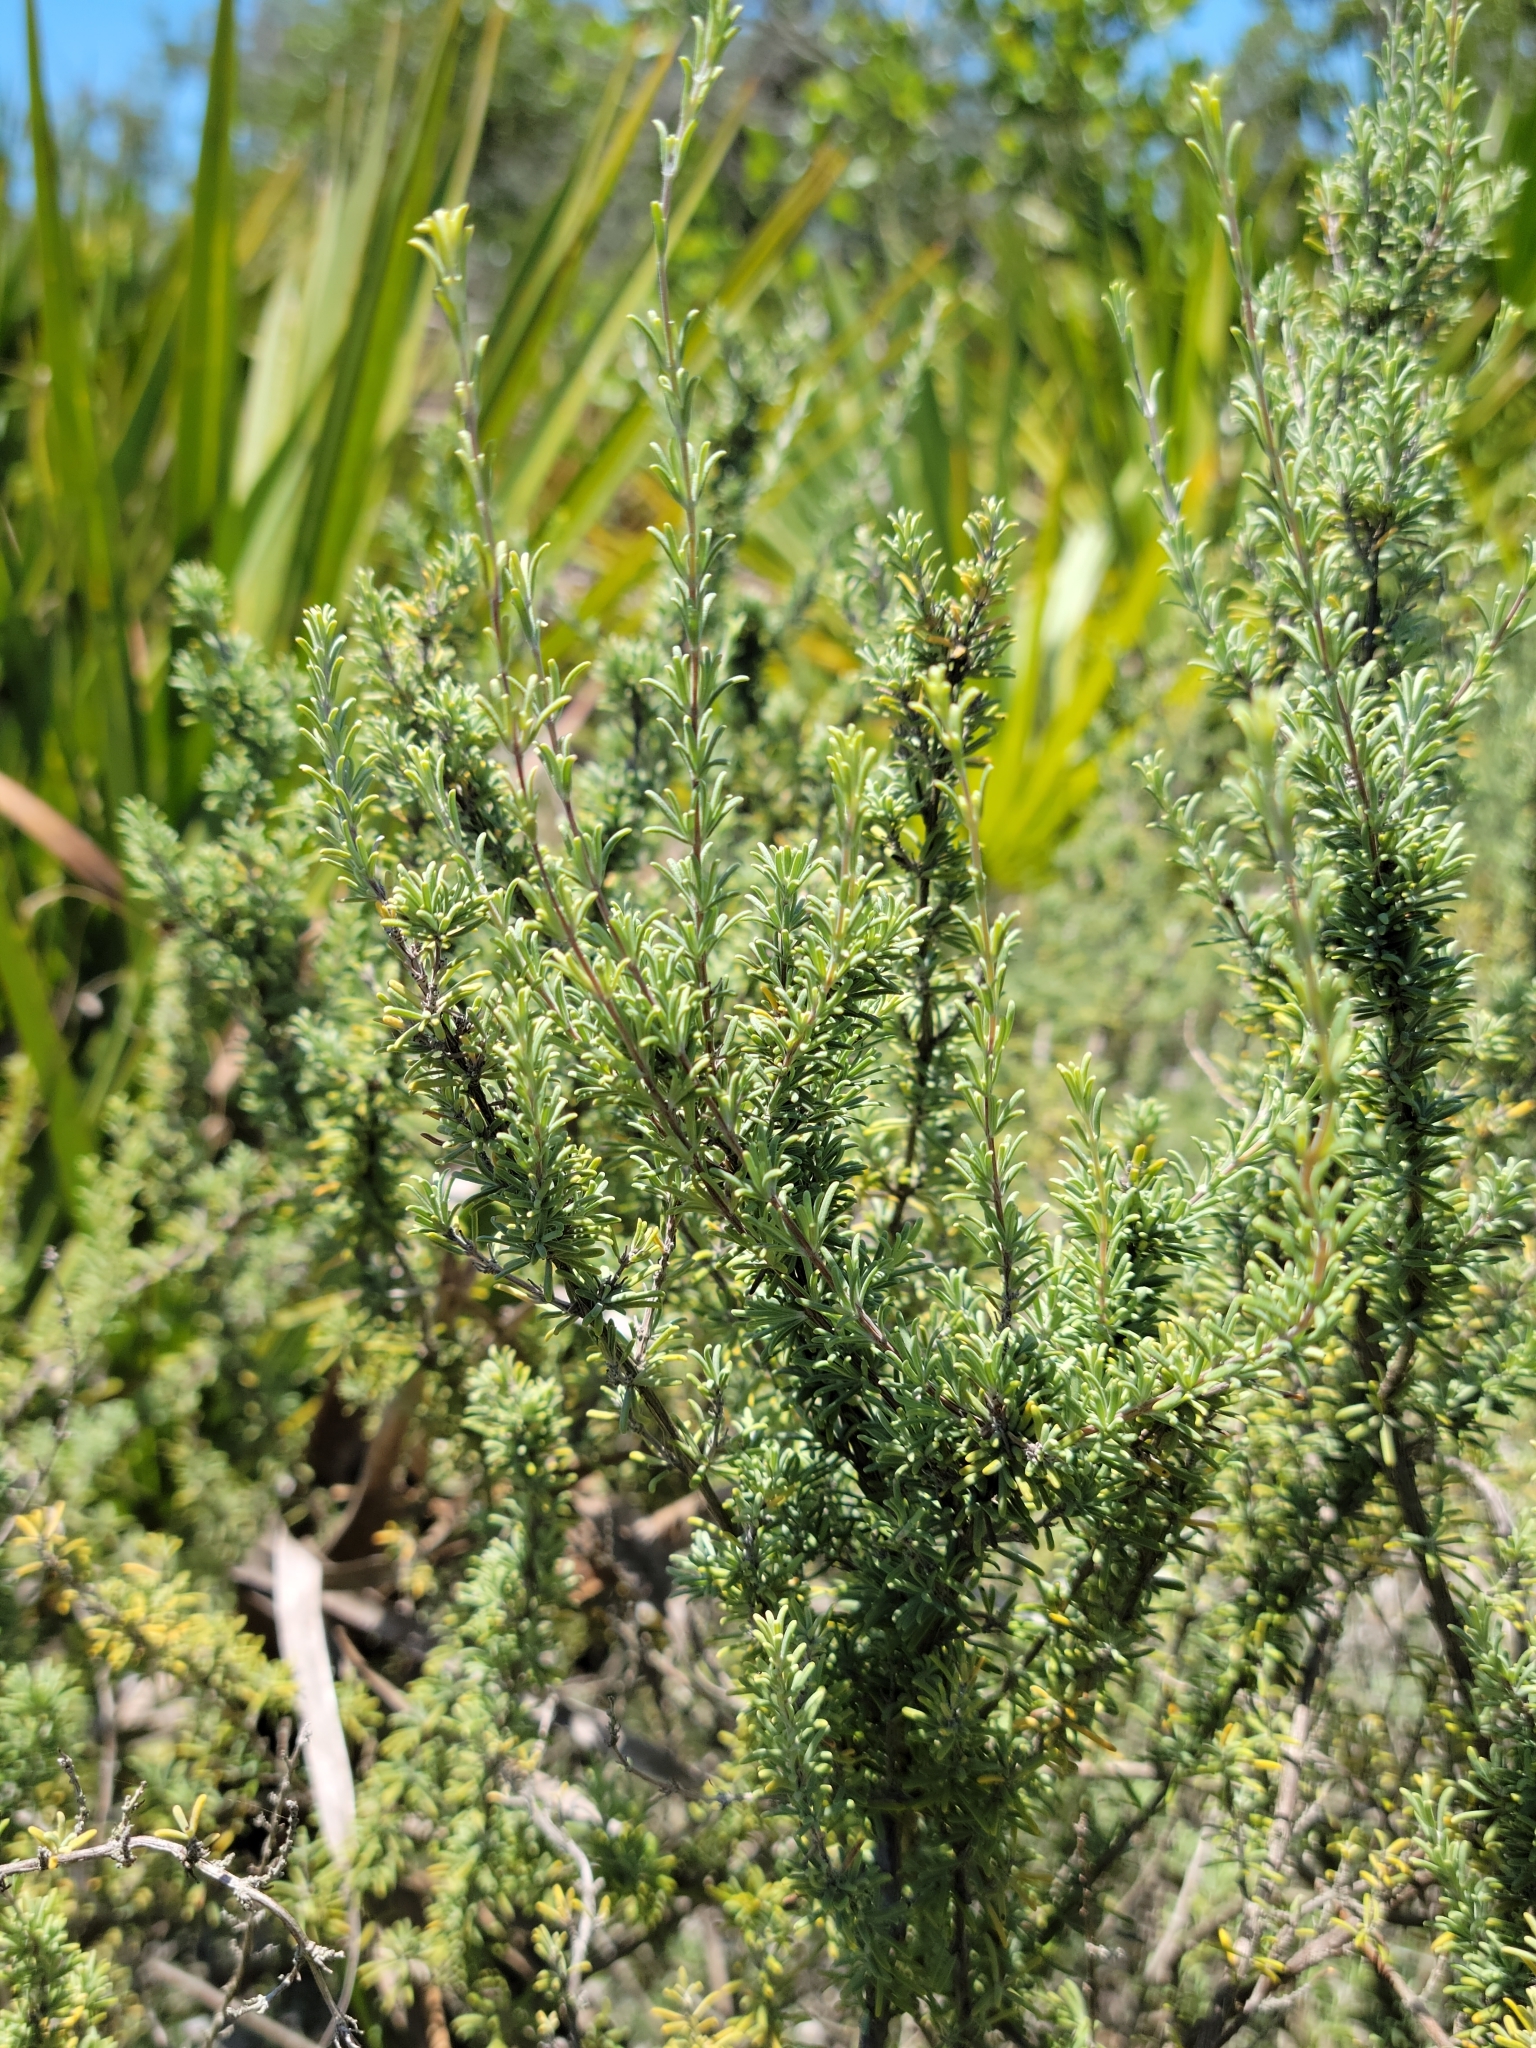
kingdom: Plantae
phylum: Tracheophyta
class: Magnoliopsida
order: Lamiales
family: Lamiaceae
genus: Conradina
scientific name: Conradina canescens
